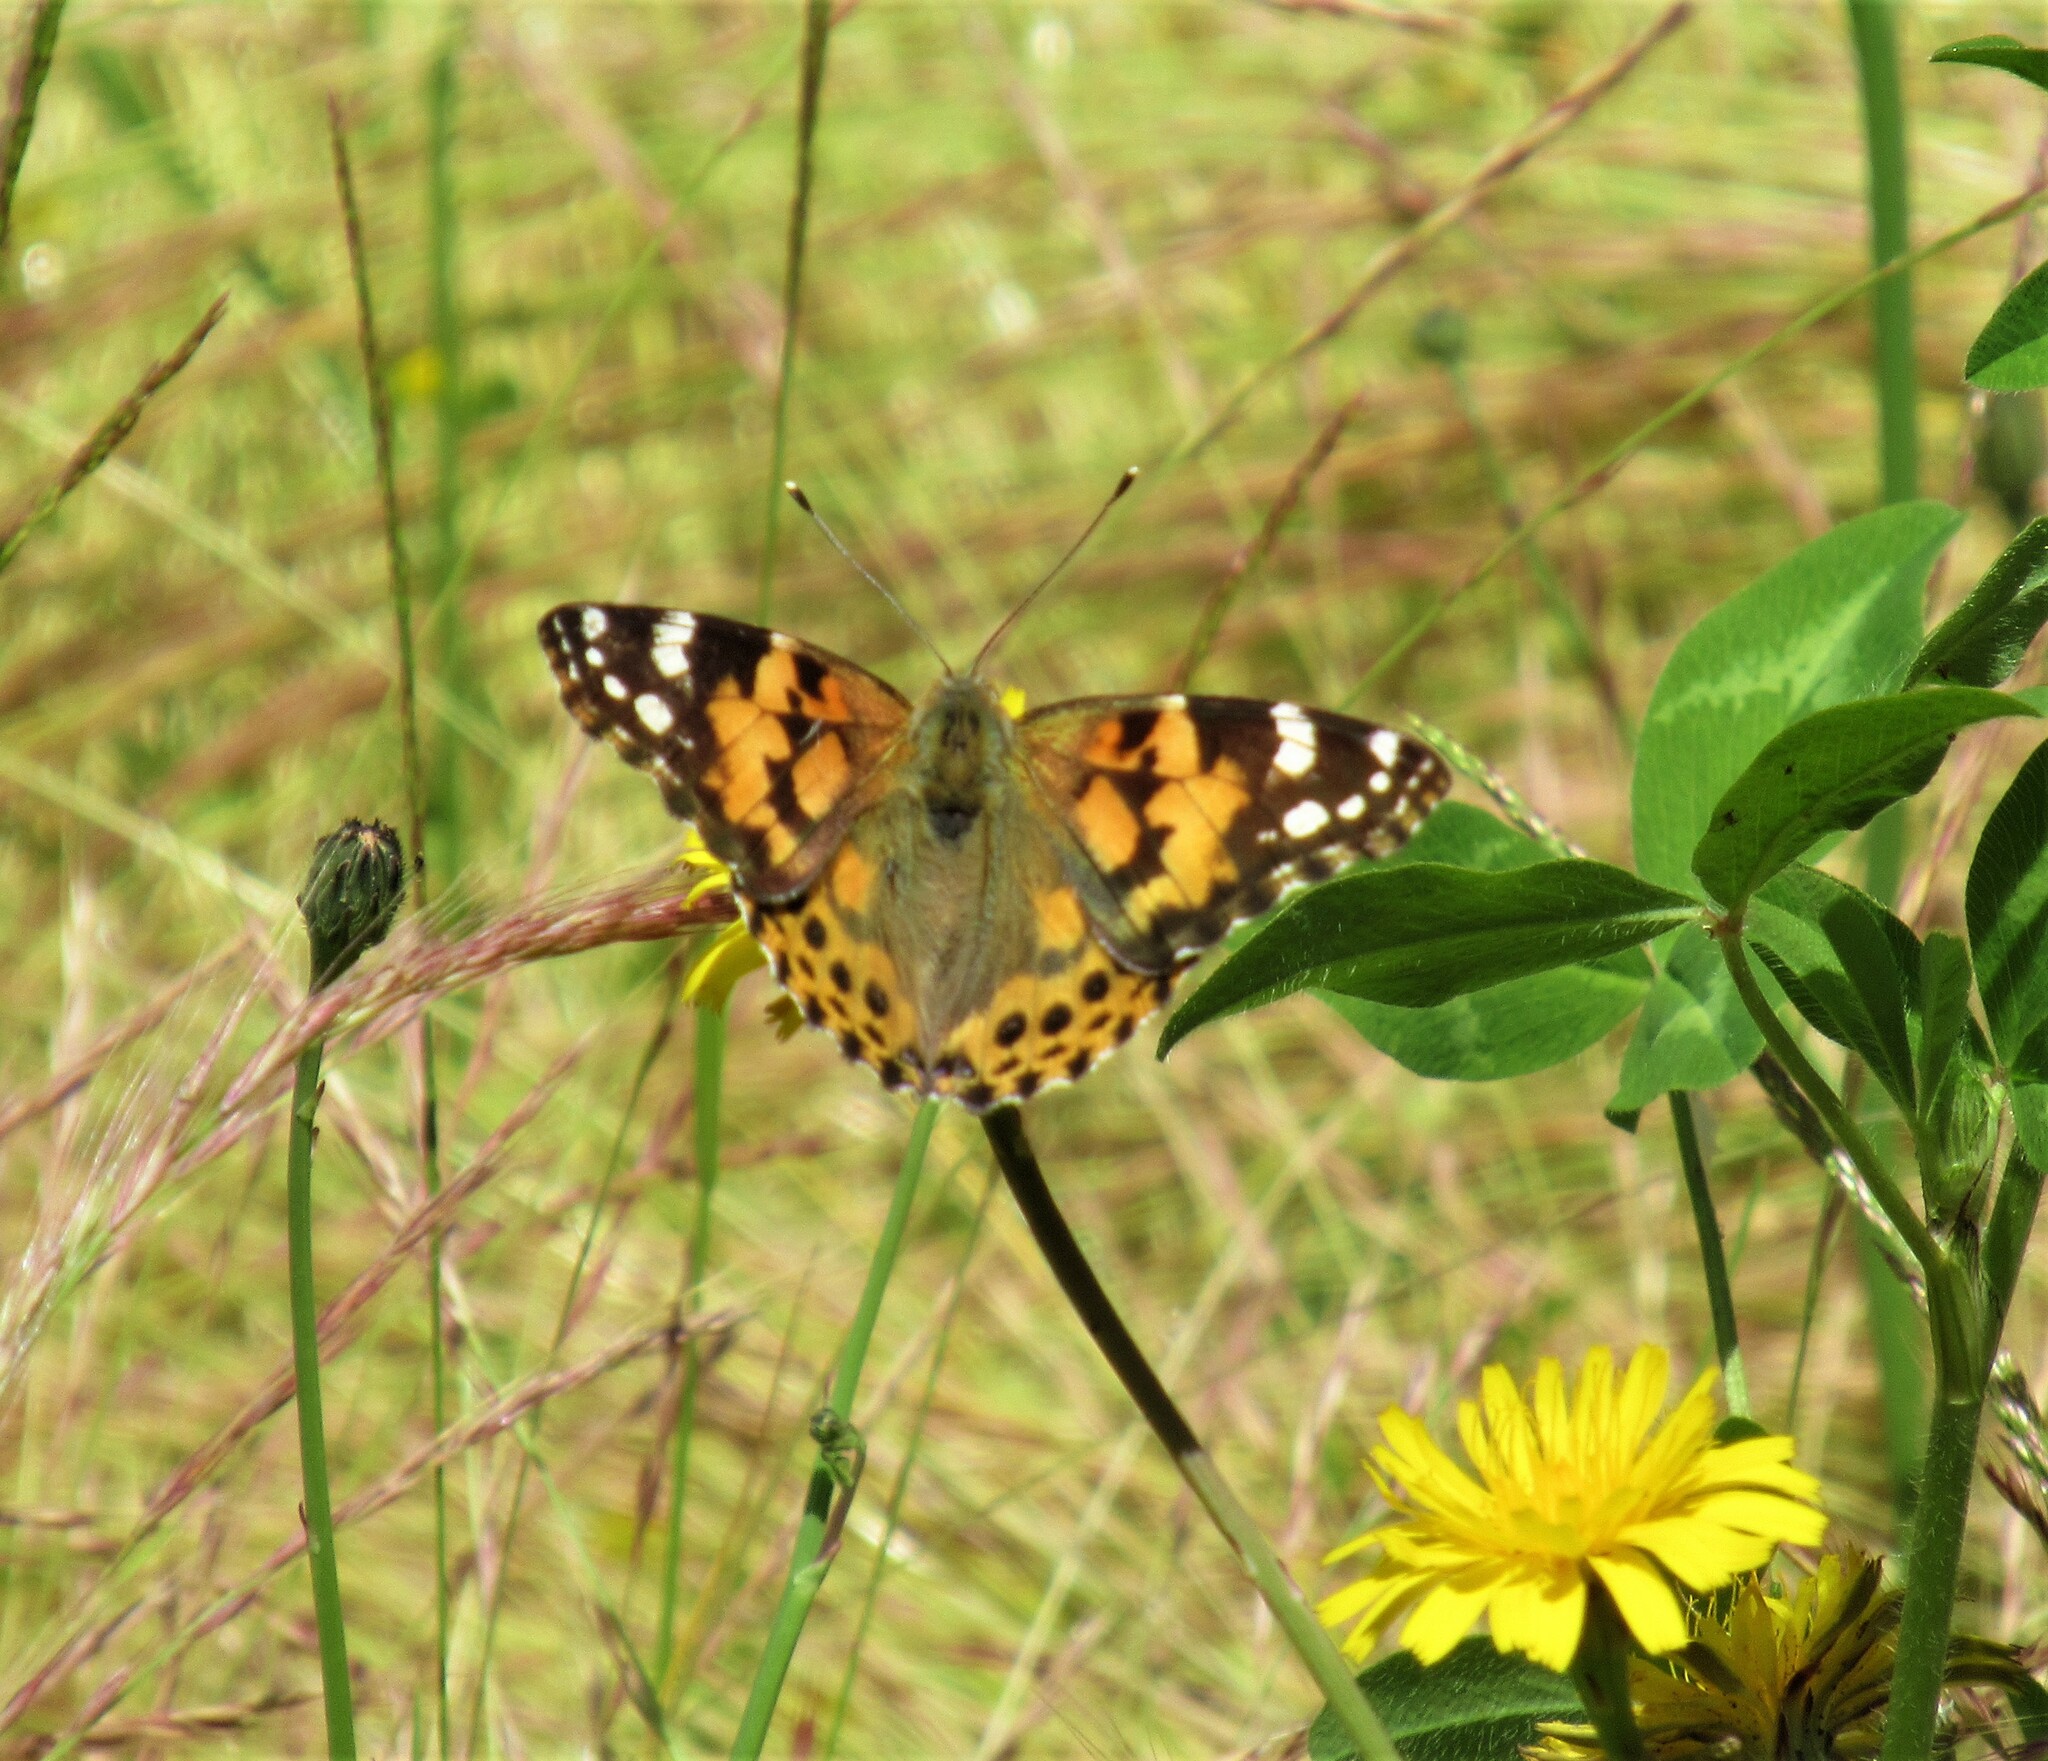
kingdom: Animalia
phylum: Arthropoda
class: Insecta
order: Lepidoptera
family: Nymphalidae
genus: Vanessa
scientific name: Vanessa cardui
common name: Painted lady
